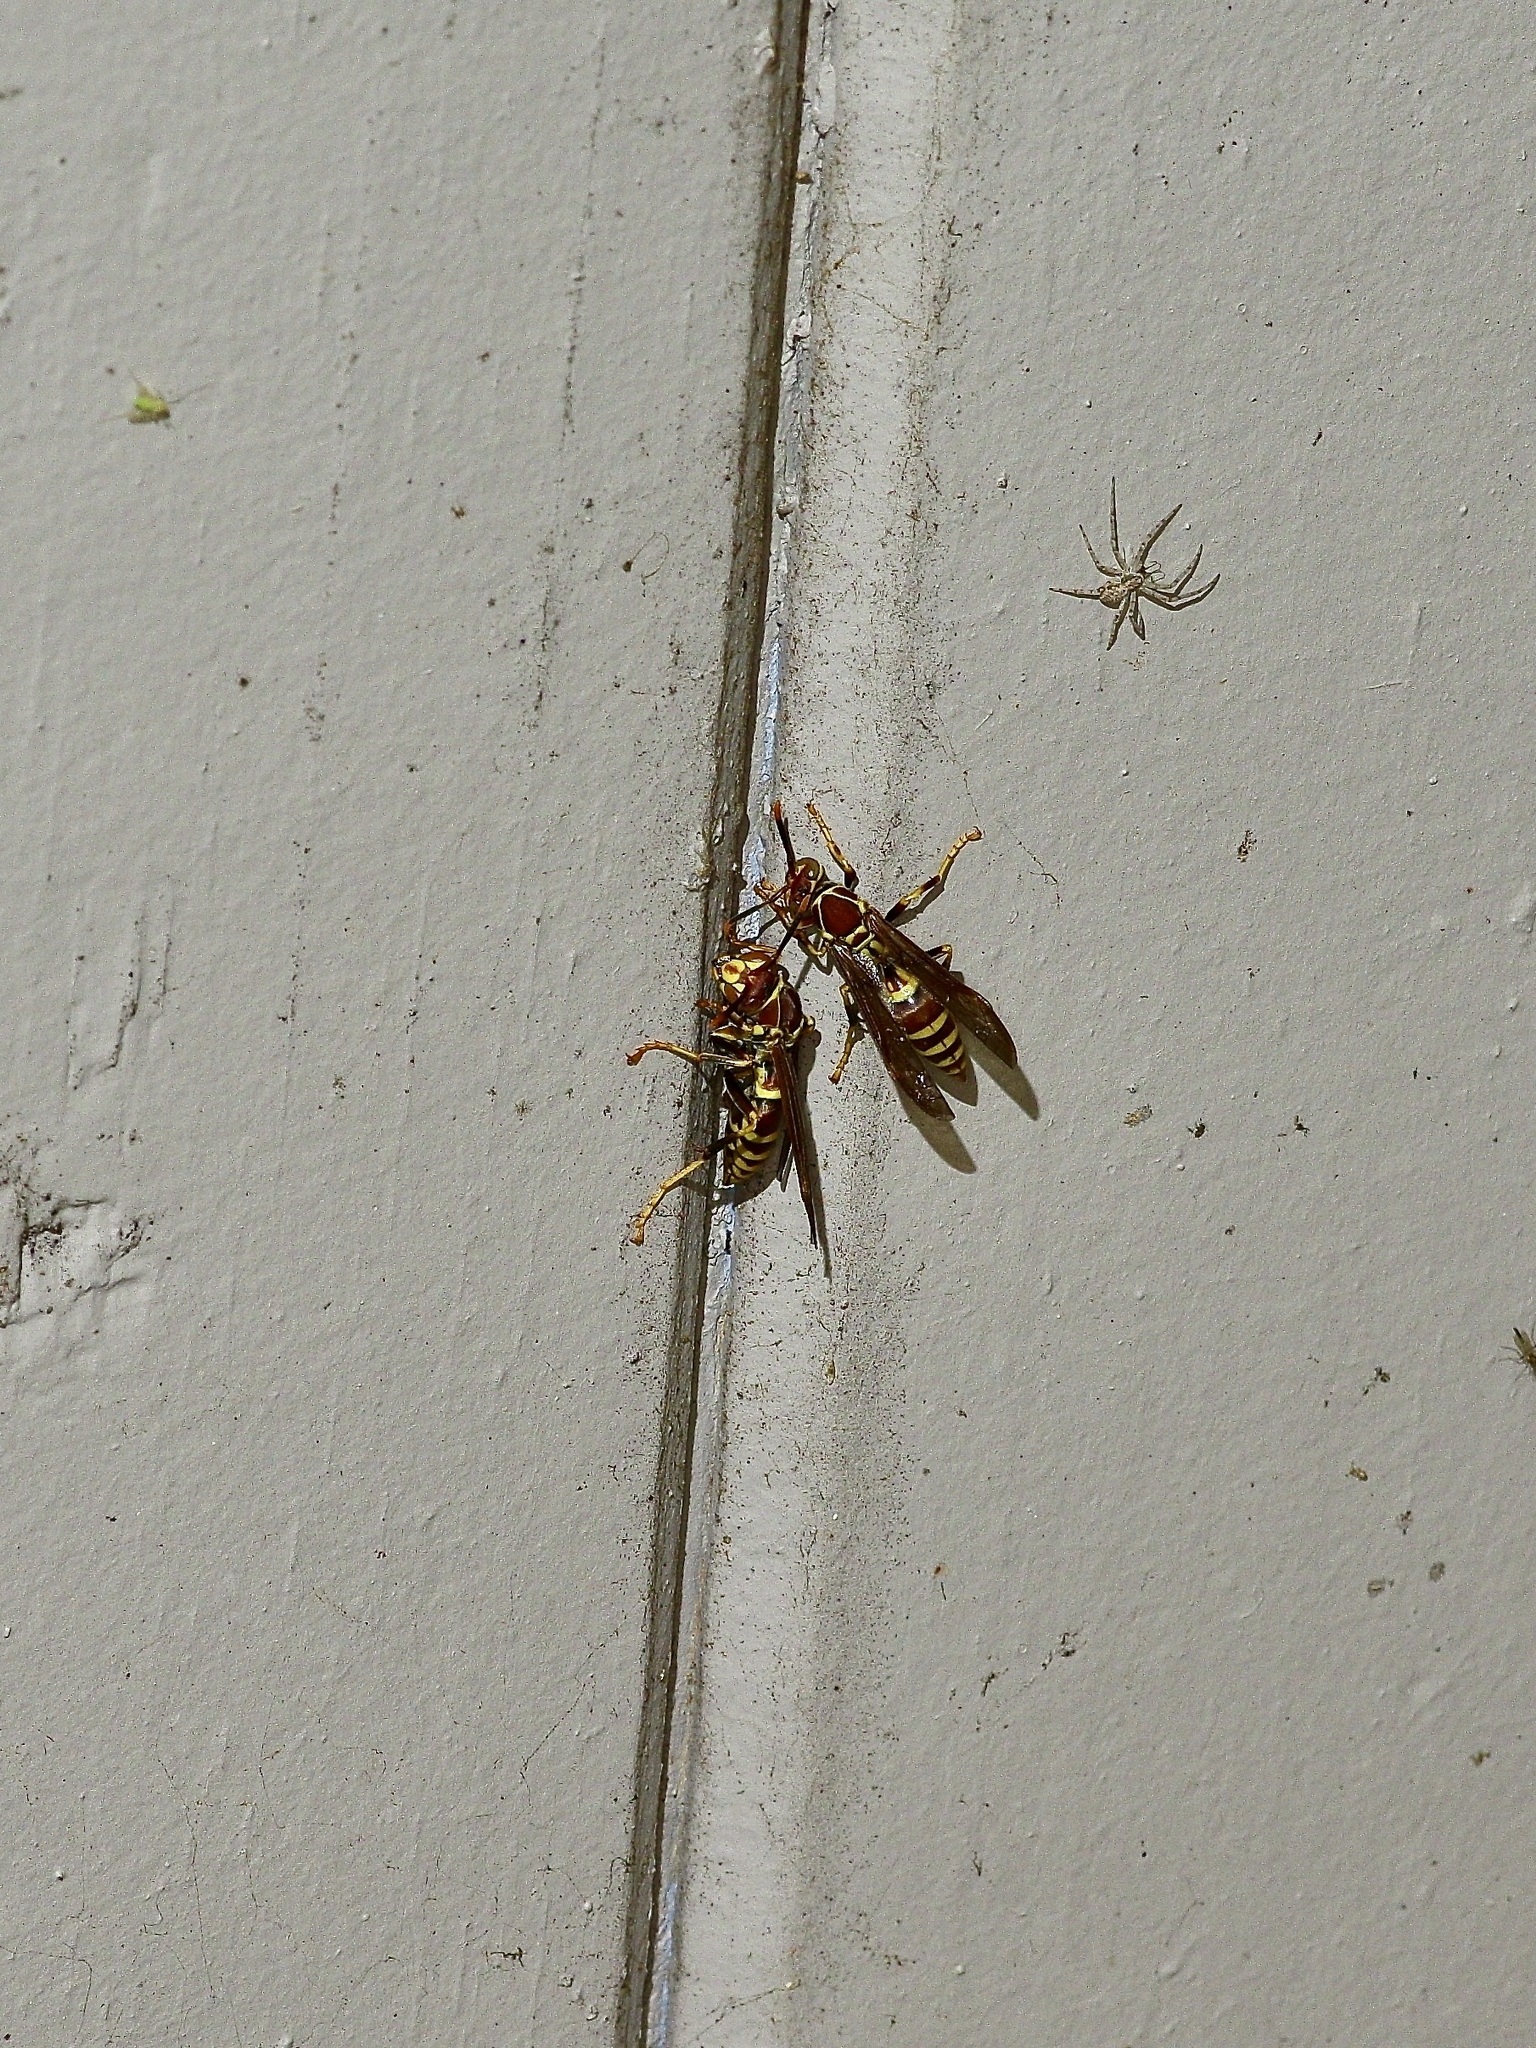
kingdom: Animalia
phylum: Arthropoda
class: Insecta
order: Hymenoptera
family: Eumenidae
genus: Polistes
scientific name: Polistes exclamans
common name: Paper wasp
